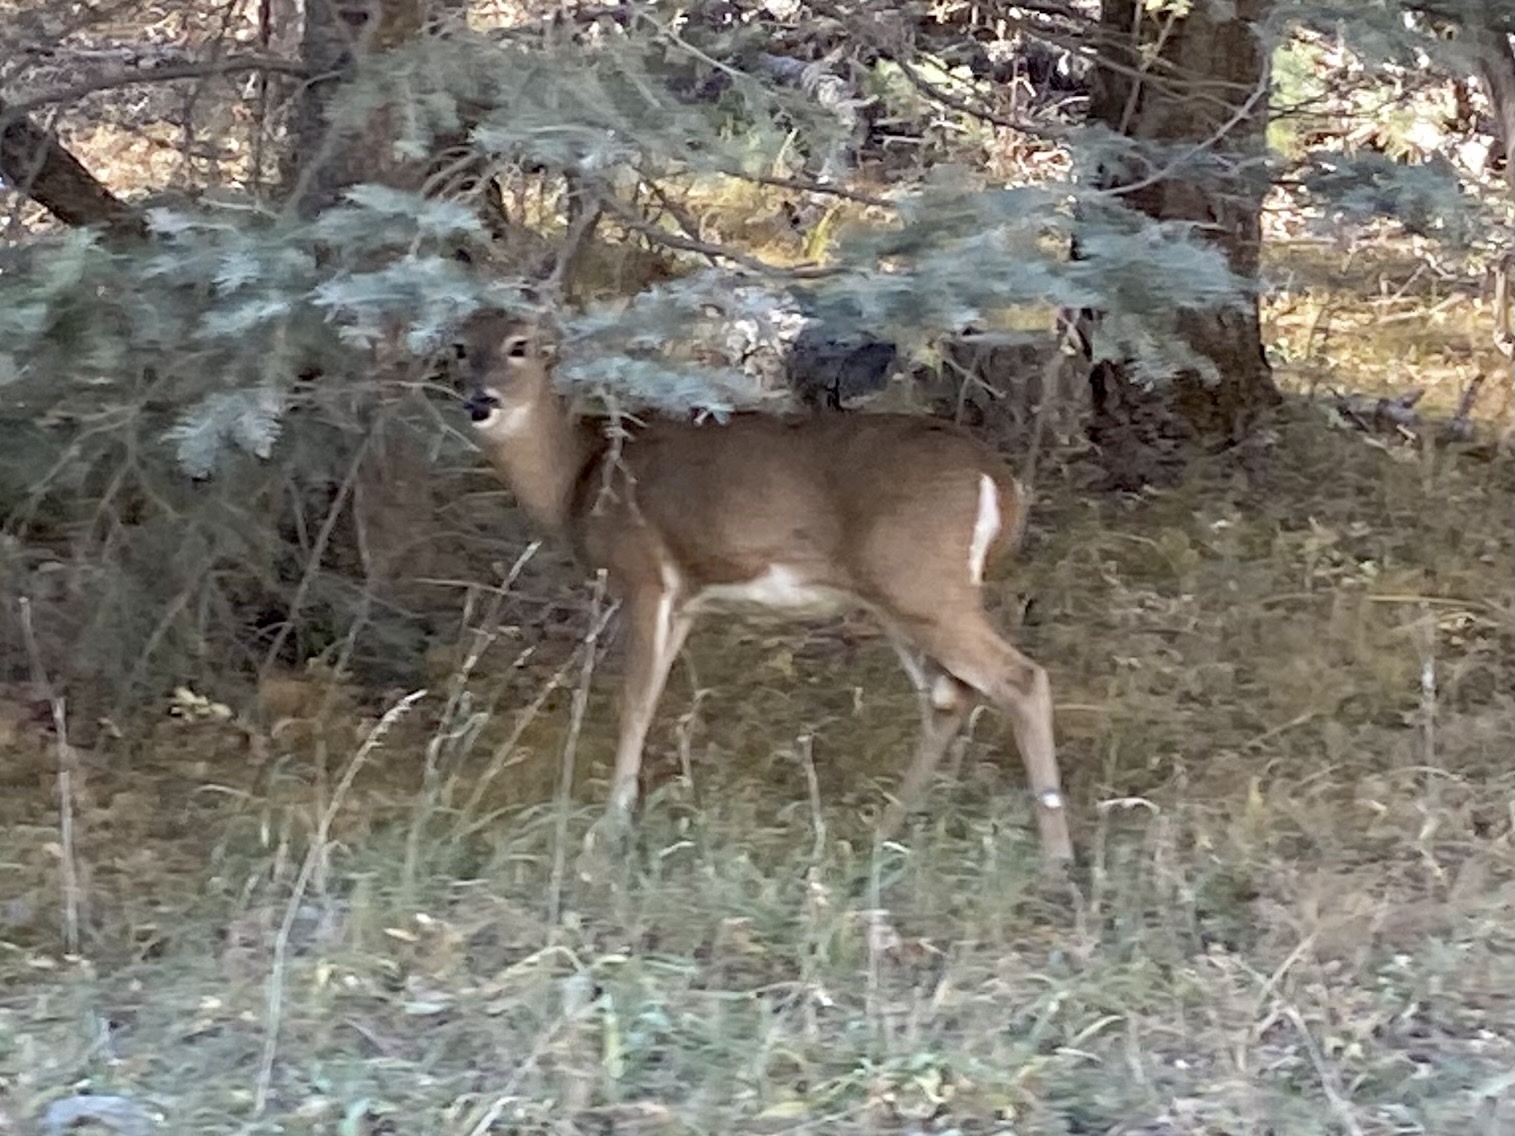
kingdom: Animalia
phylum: Chordata
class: Mammalia
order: Artiodactyla
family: Cervidae
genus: Odocoileus
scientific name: Odocoileus virginianus
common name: White-tailed deer
